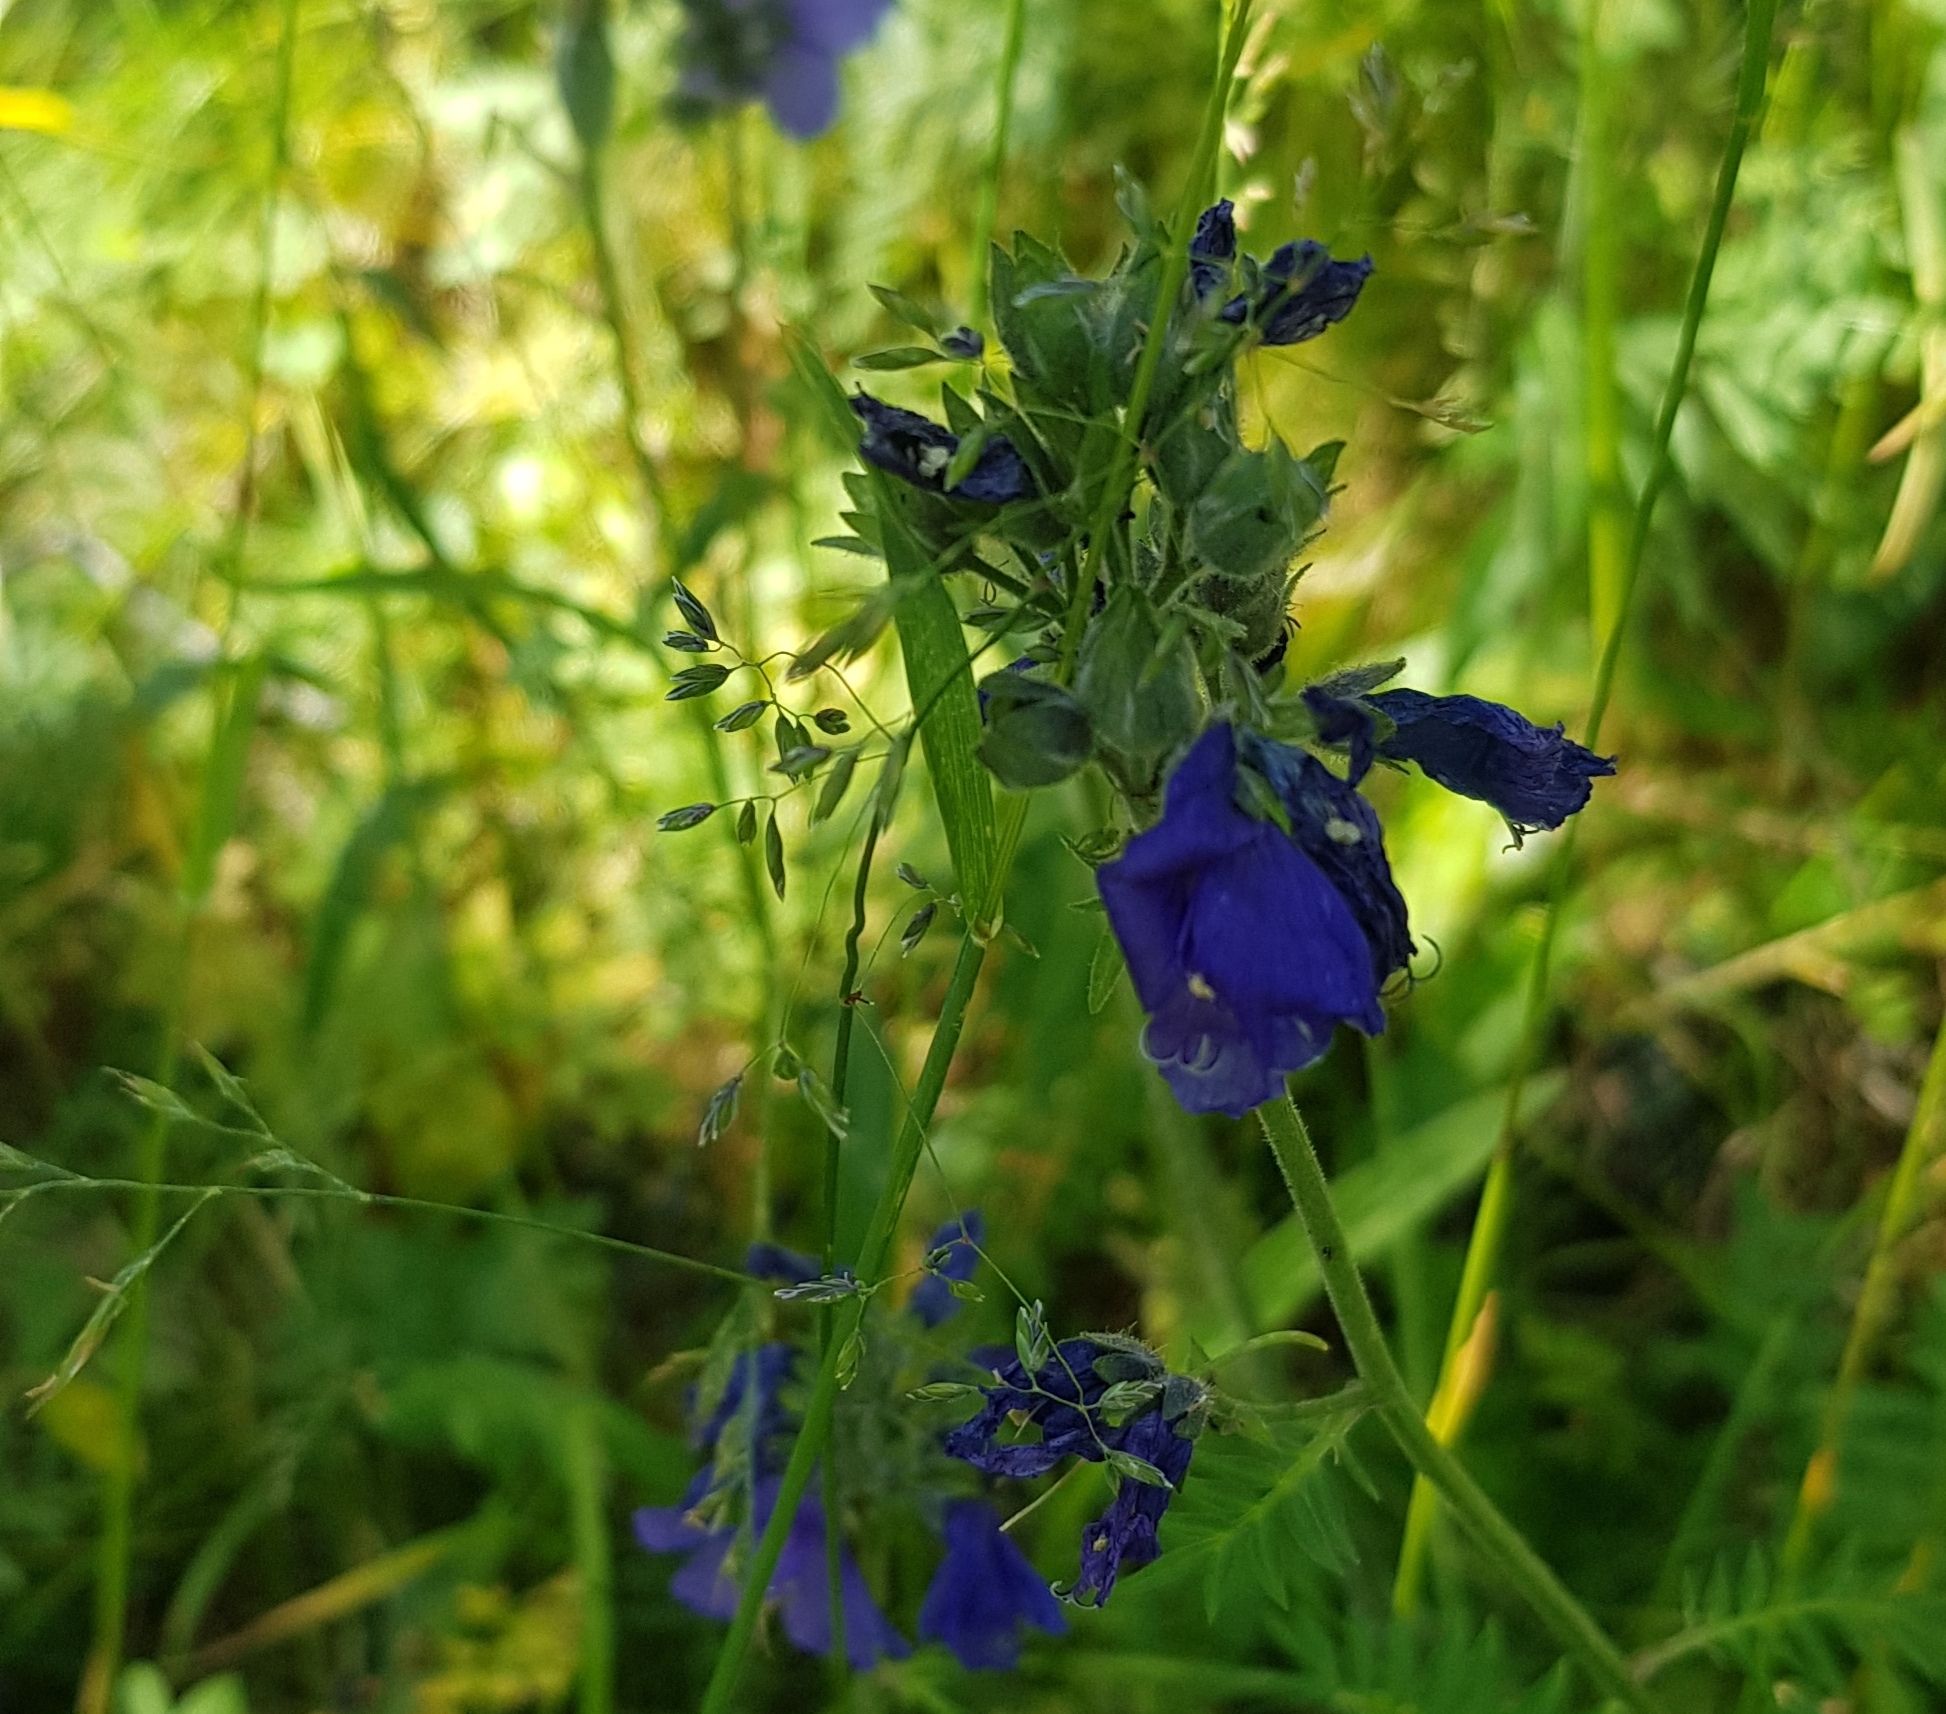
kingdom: Plantae
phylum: Tracheophyta
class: Magnoliopsida
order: Ericales
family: Polemoniaceae
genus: Polemonium
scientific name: Polemonium caeruleum
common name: Jacob's-ladder
